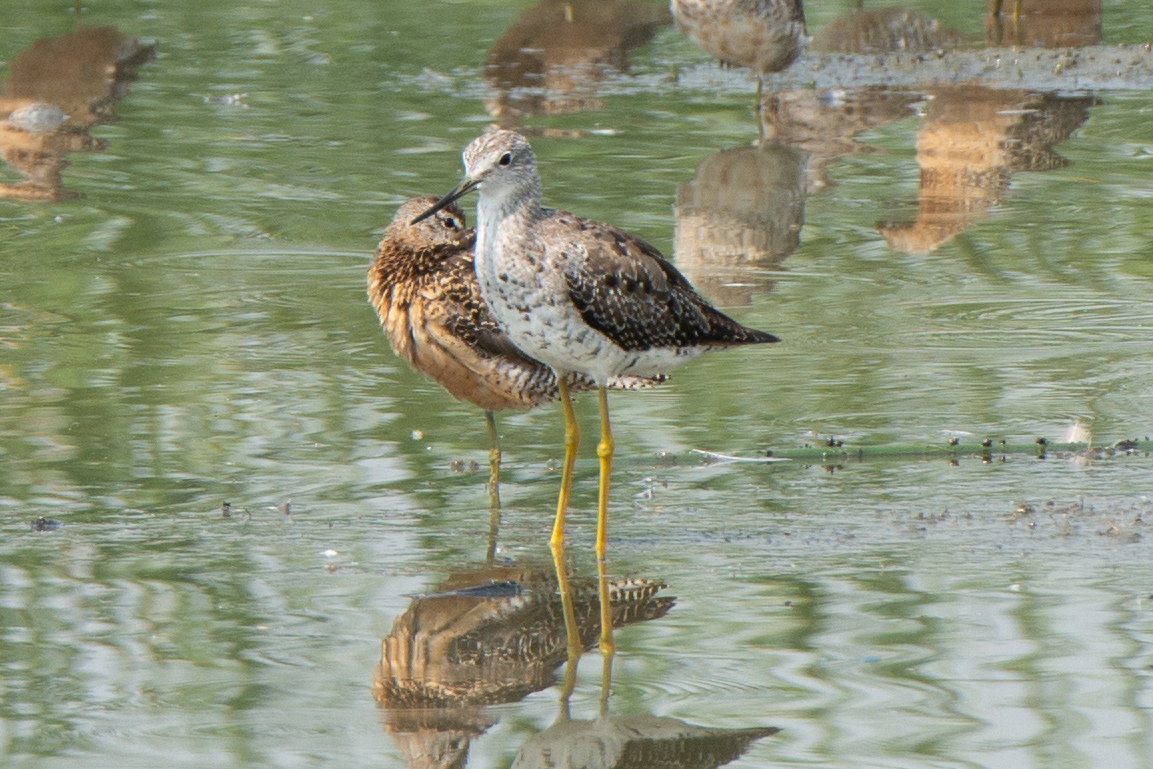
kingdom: Animalia
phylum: Chordata
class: Aves
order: Charadriiformes
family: Scolopacidae
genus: Tringa
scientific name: Tringa melanoleuca
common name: Greater yellowlegs
